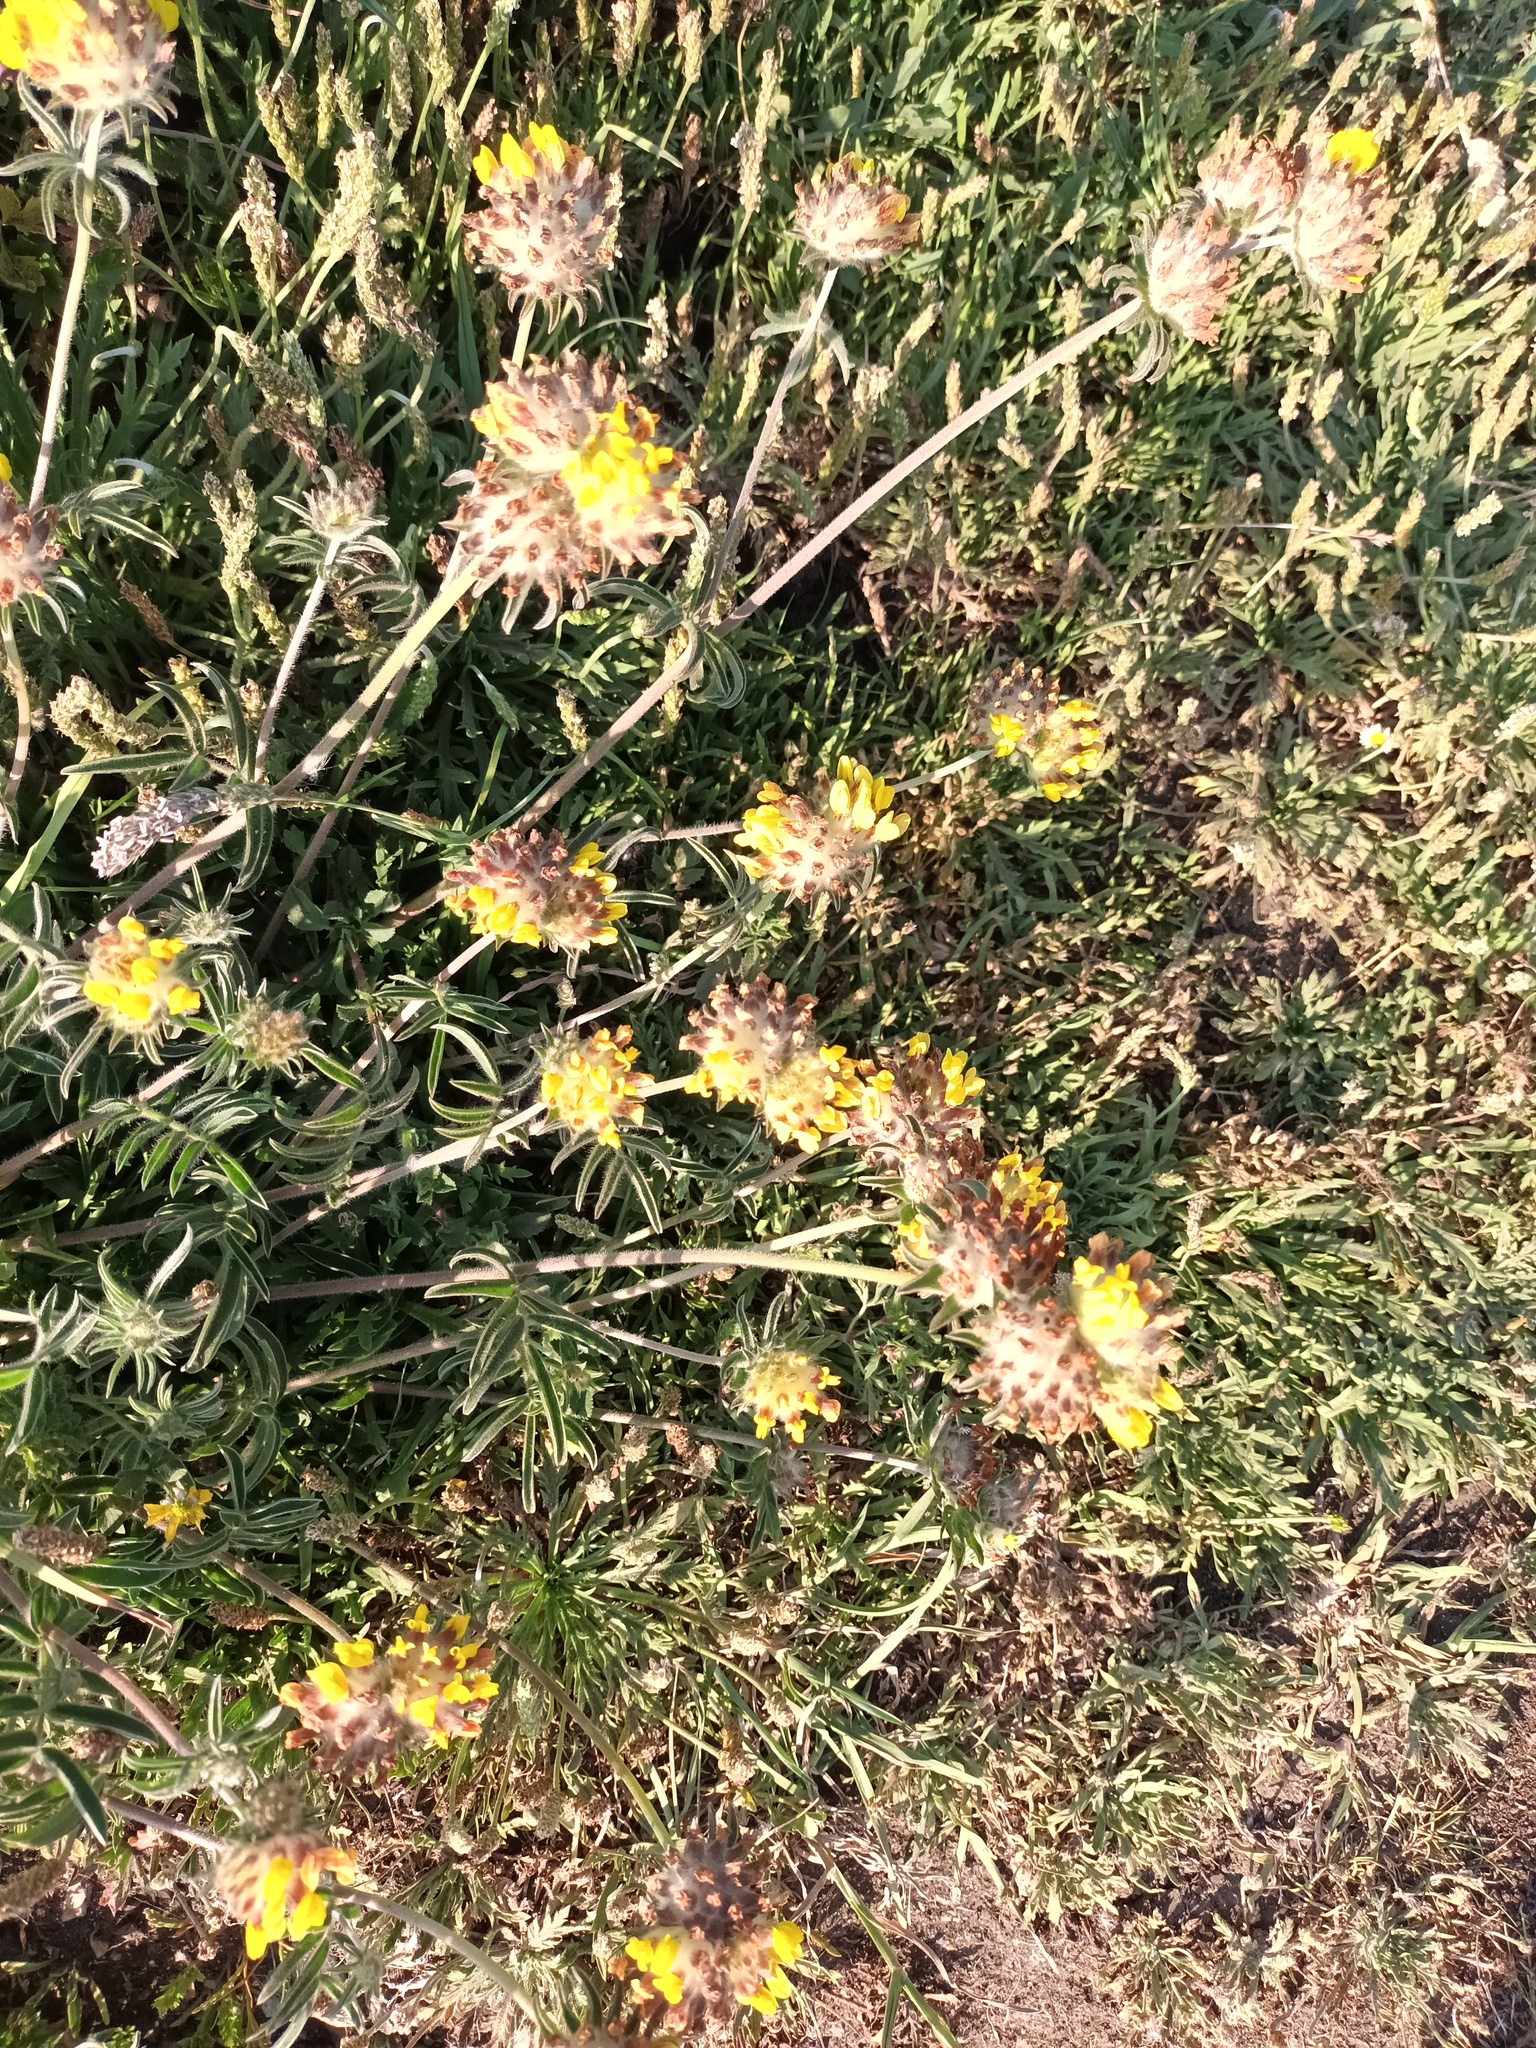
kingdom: Plantae
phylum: Tracheophyta
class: Magnoliopsida
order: Fabales
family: Fabaceae
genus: Anthyllis
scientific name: Anthyllis vulneraria
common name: Kidney vetch
